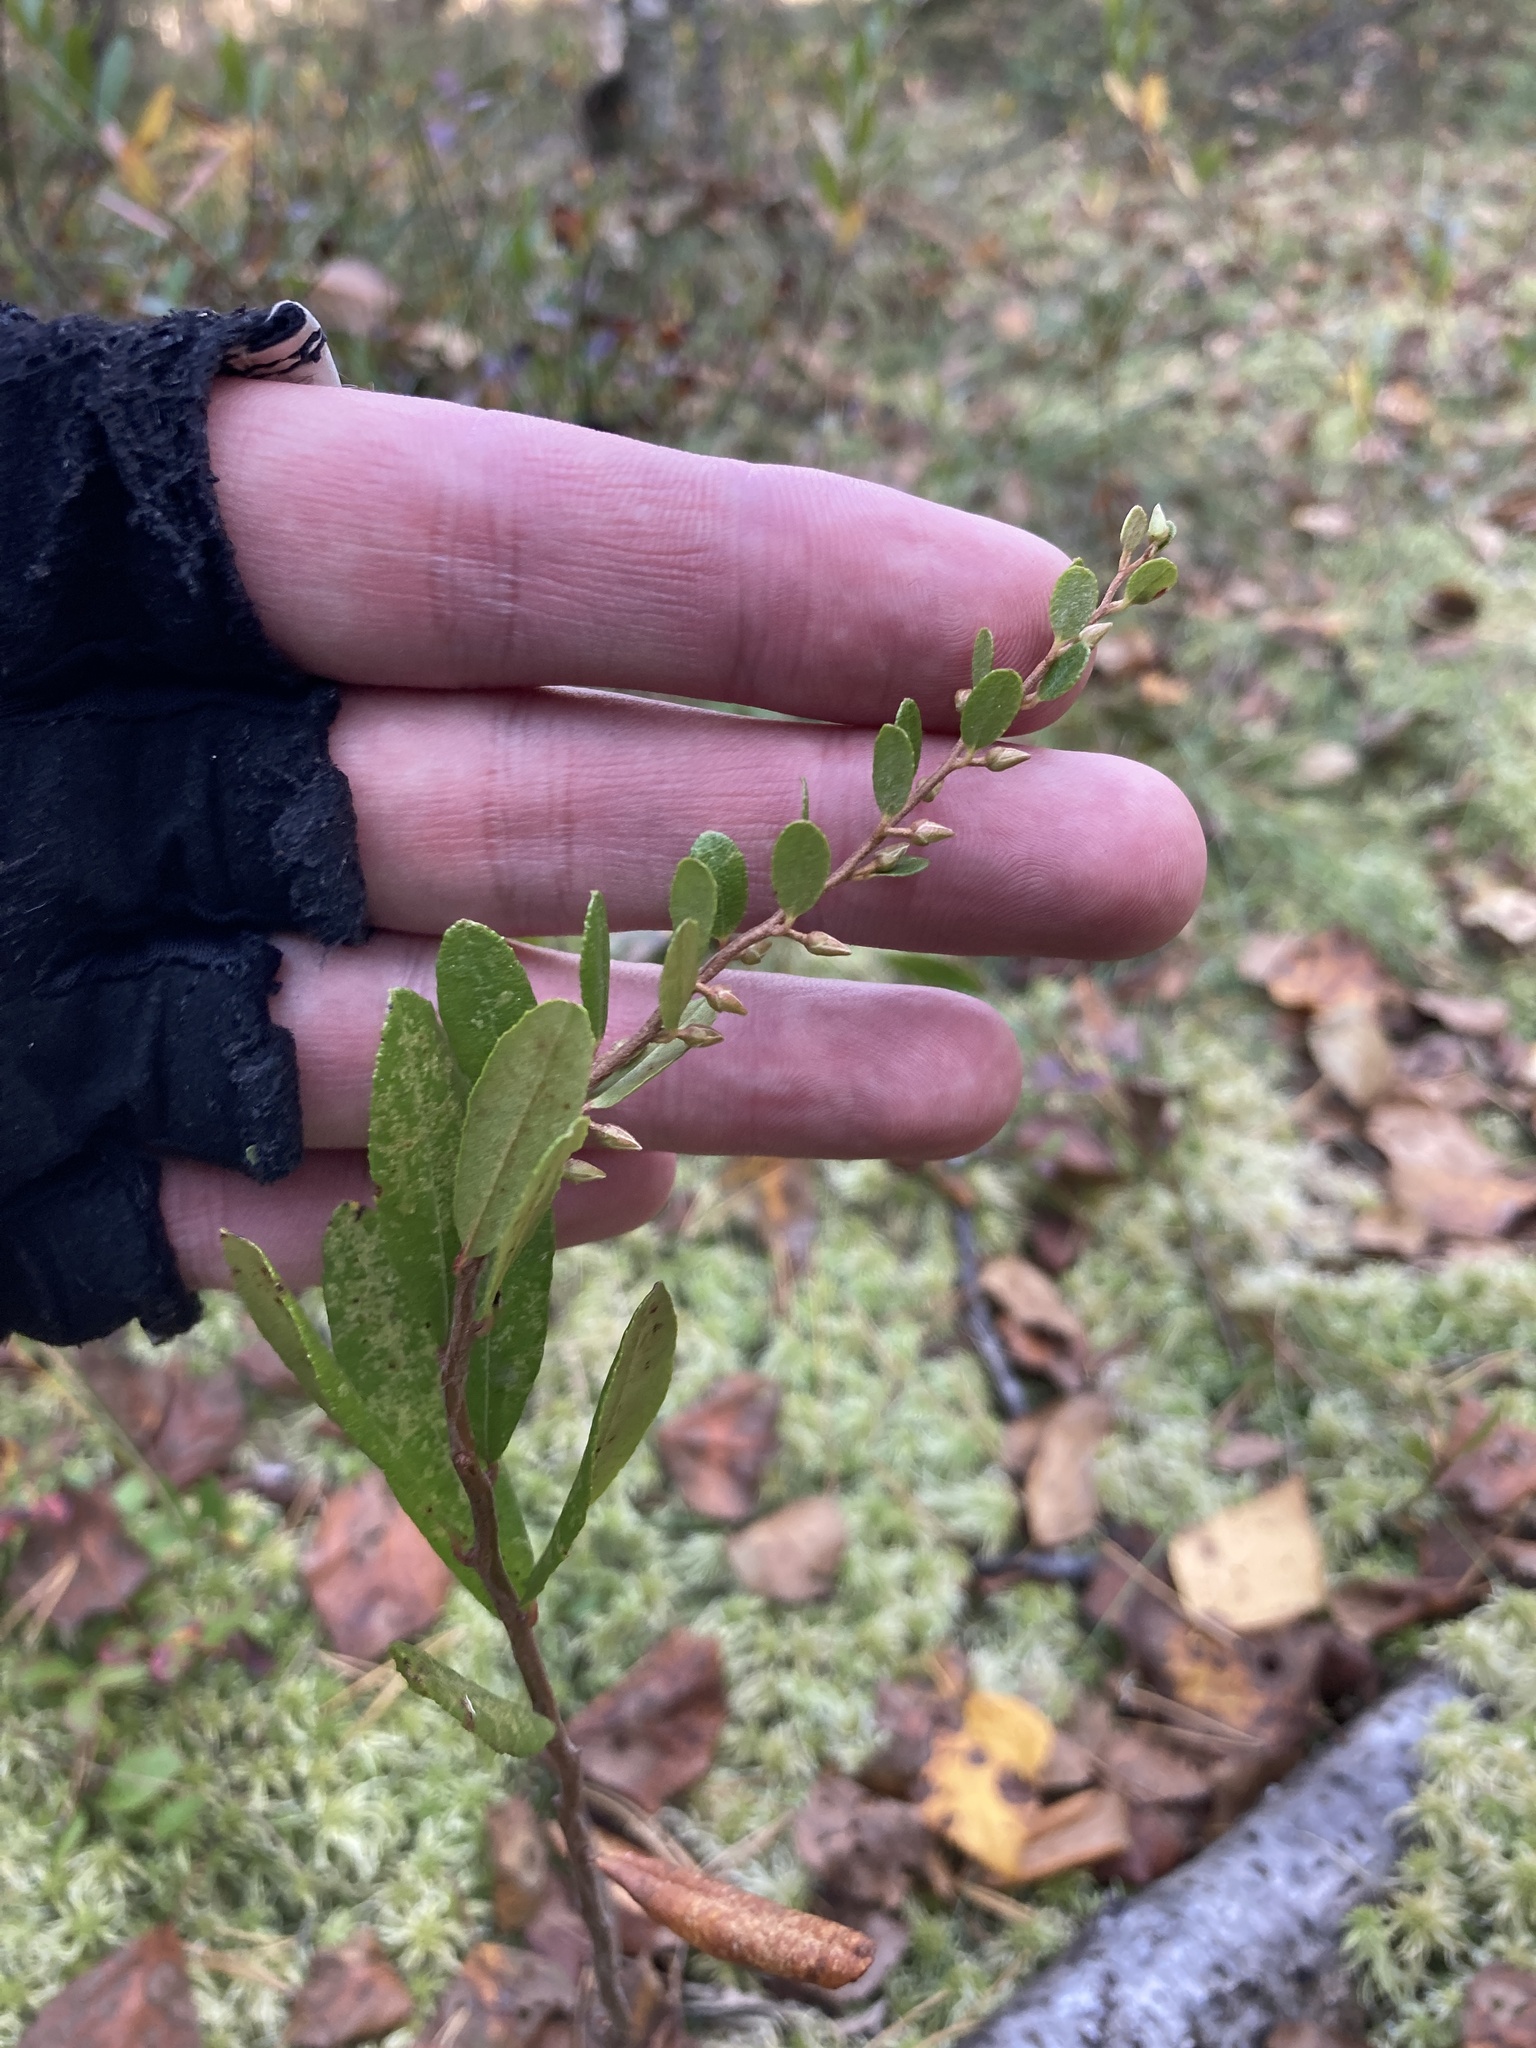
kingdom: Plantae
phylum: Tracheophyta
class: Magnoliopsida
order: Ericales
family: Ericaceae
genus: Chamaedaphne
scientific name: Chamaedaphne calyculata
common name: Leatherleaf
